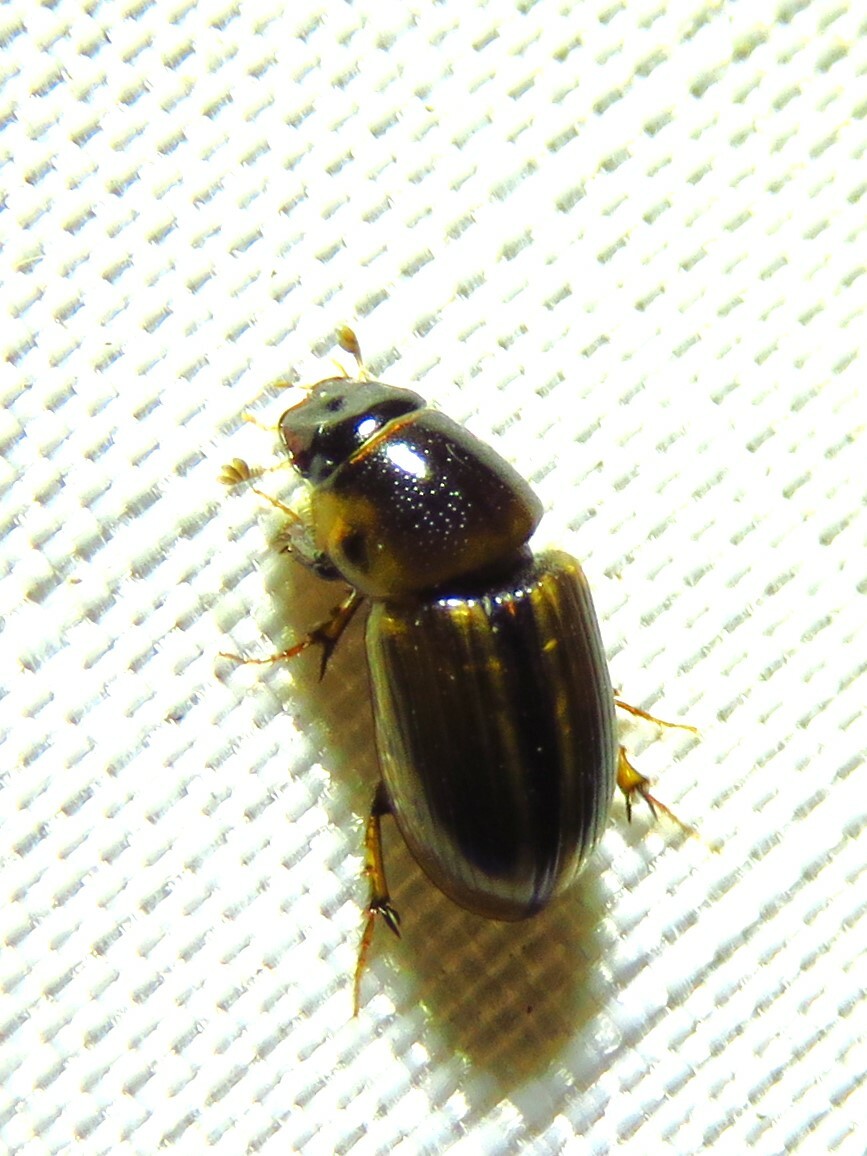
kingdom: Animalia
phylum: Arthropoda
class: Insecta
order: Coleoptera
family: Scarabaeidae
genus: Labarrus
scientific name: Labarrus lividus
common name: Scarab beetle
